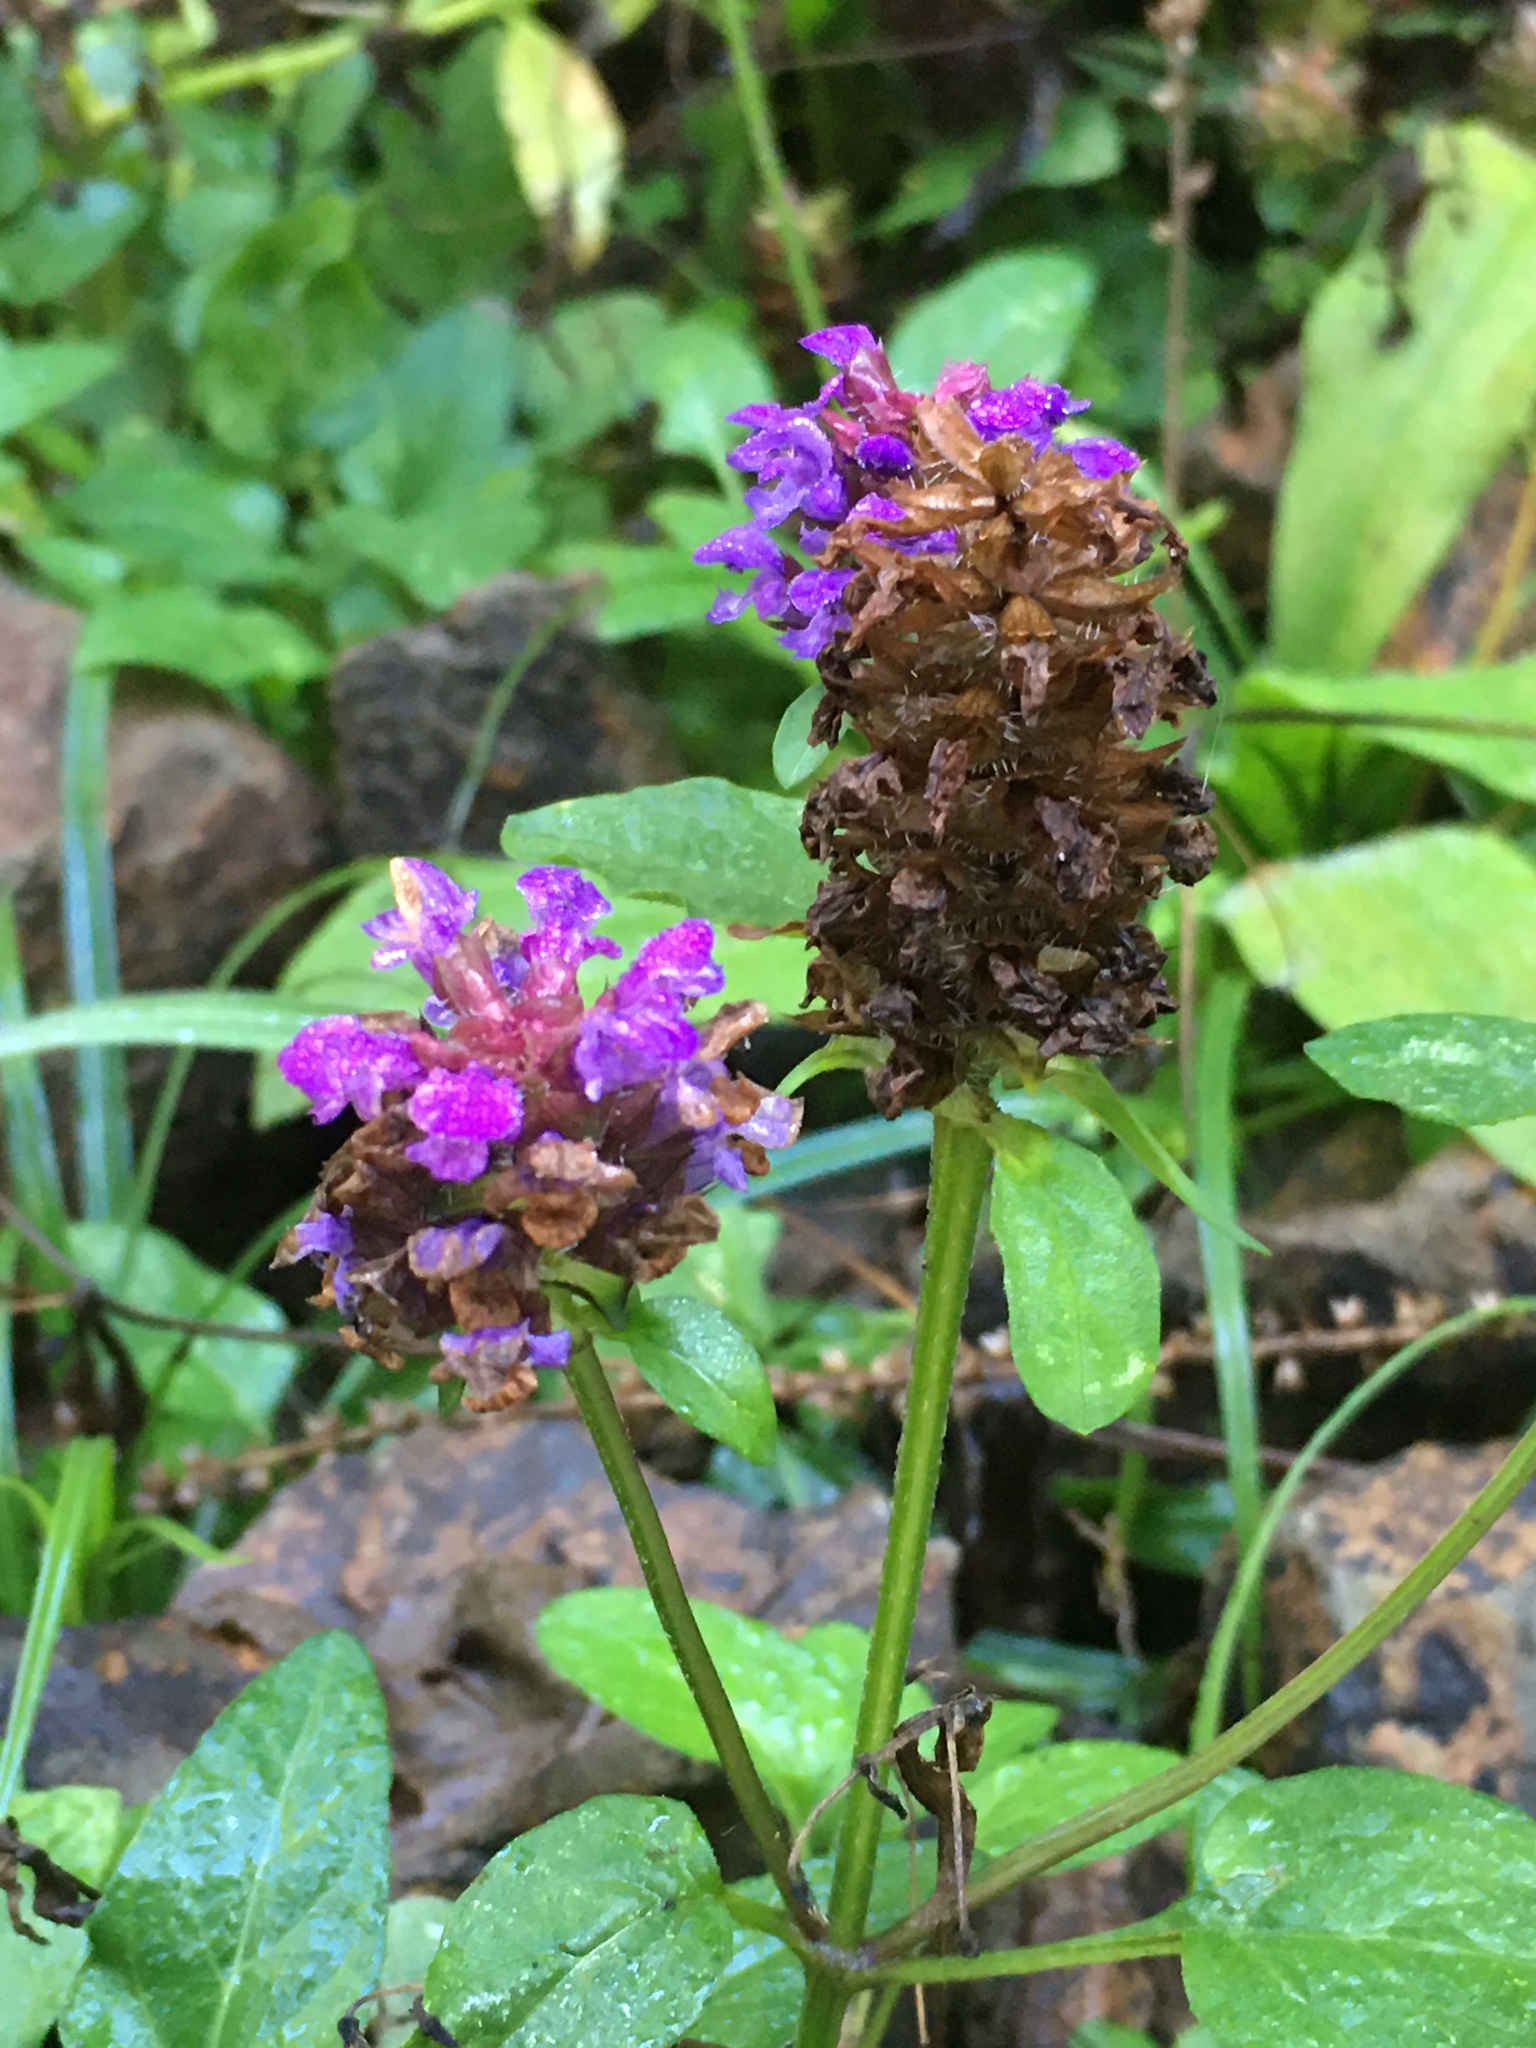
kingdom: Plantae
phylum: Tracheophyta
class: Magnoliopsida
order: Lamiales
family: Lamiaceae
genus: Prunella
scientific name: Prunella vulgaris
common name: Heal-all
